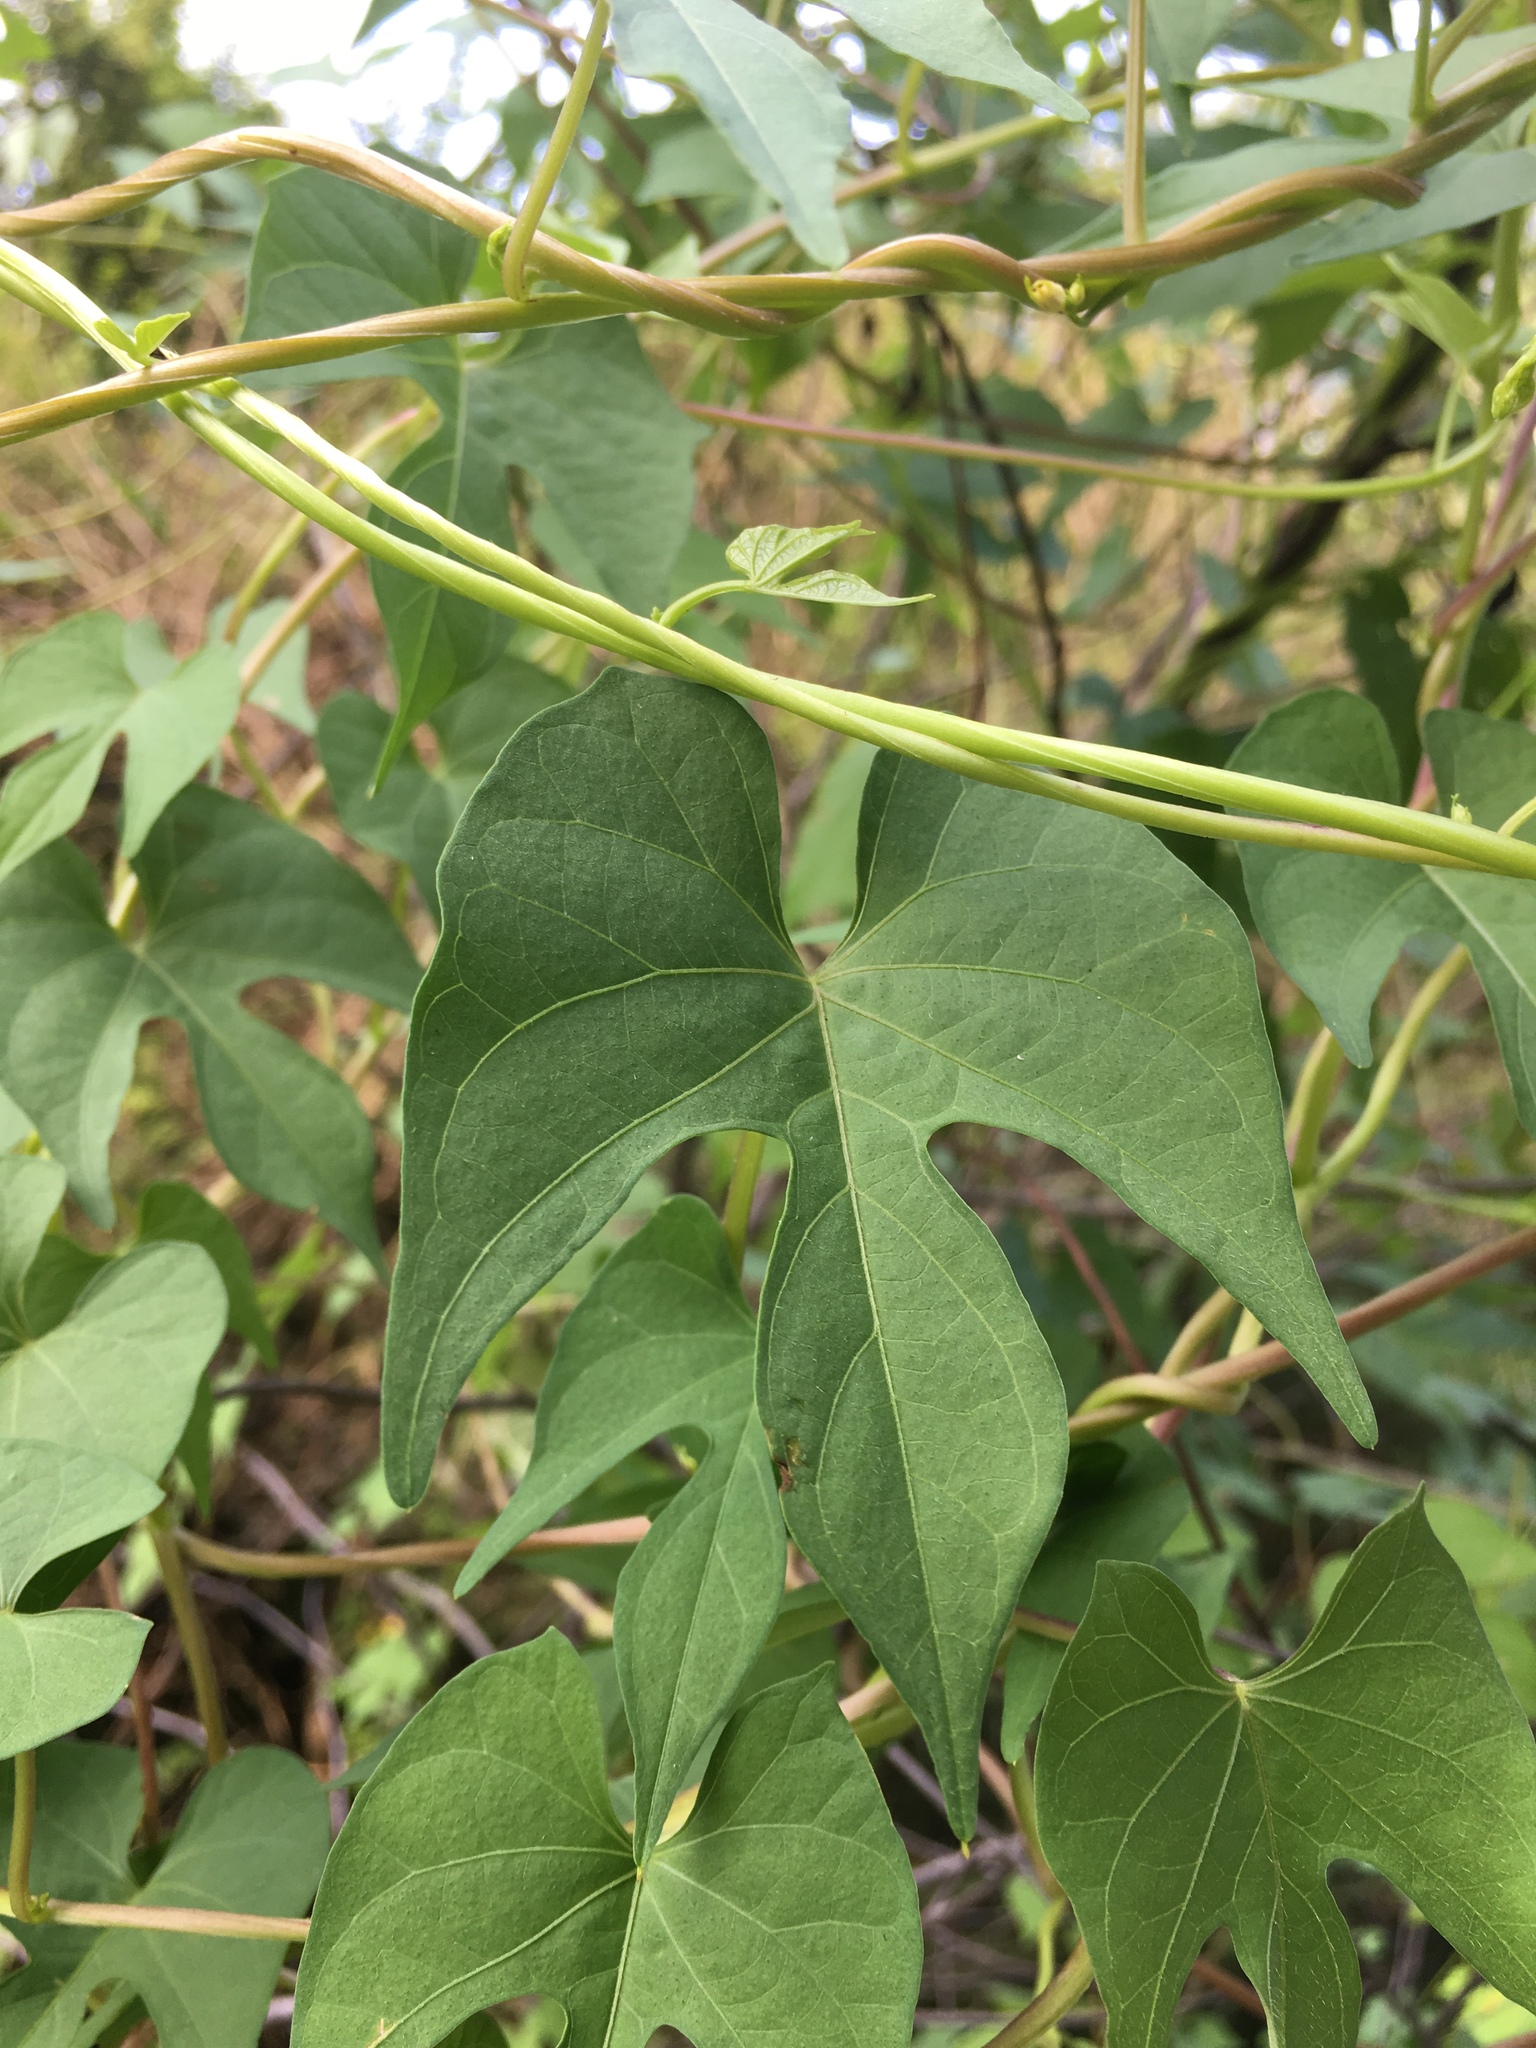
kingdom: Plantae
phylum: Tracheophyta
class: Magnoliopsida
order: Solanales
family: Convolvulaceae
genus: Ipomoea
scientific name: Ipomoea cristulata
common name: Trans-pecos morning-glory
